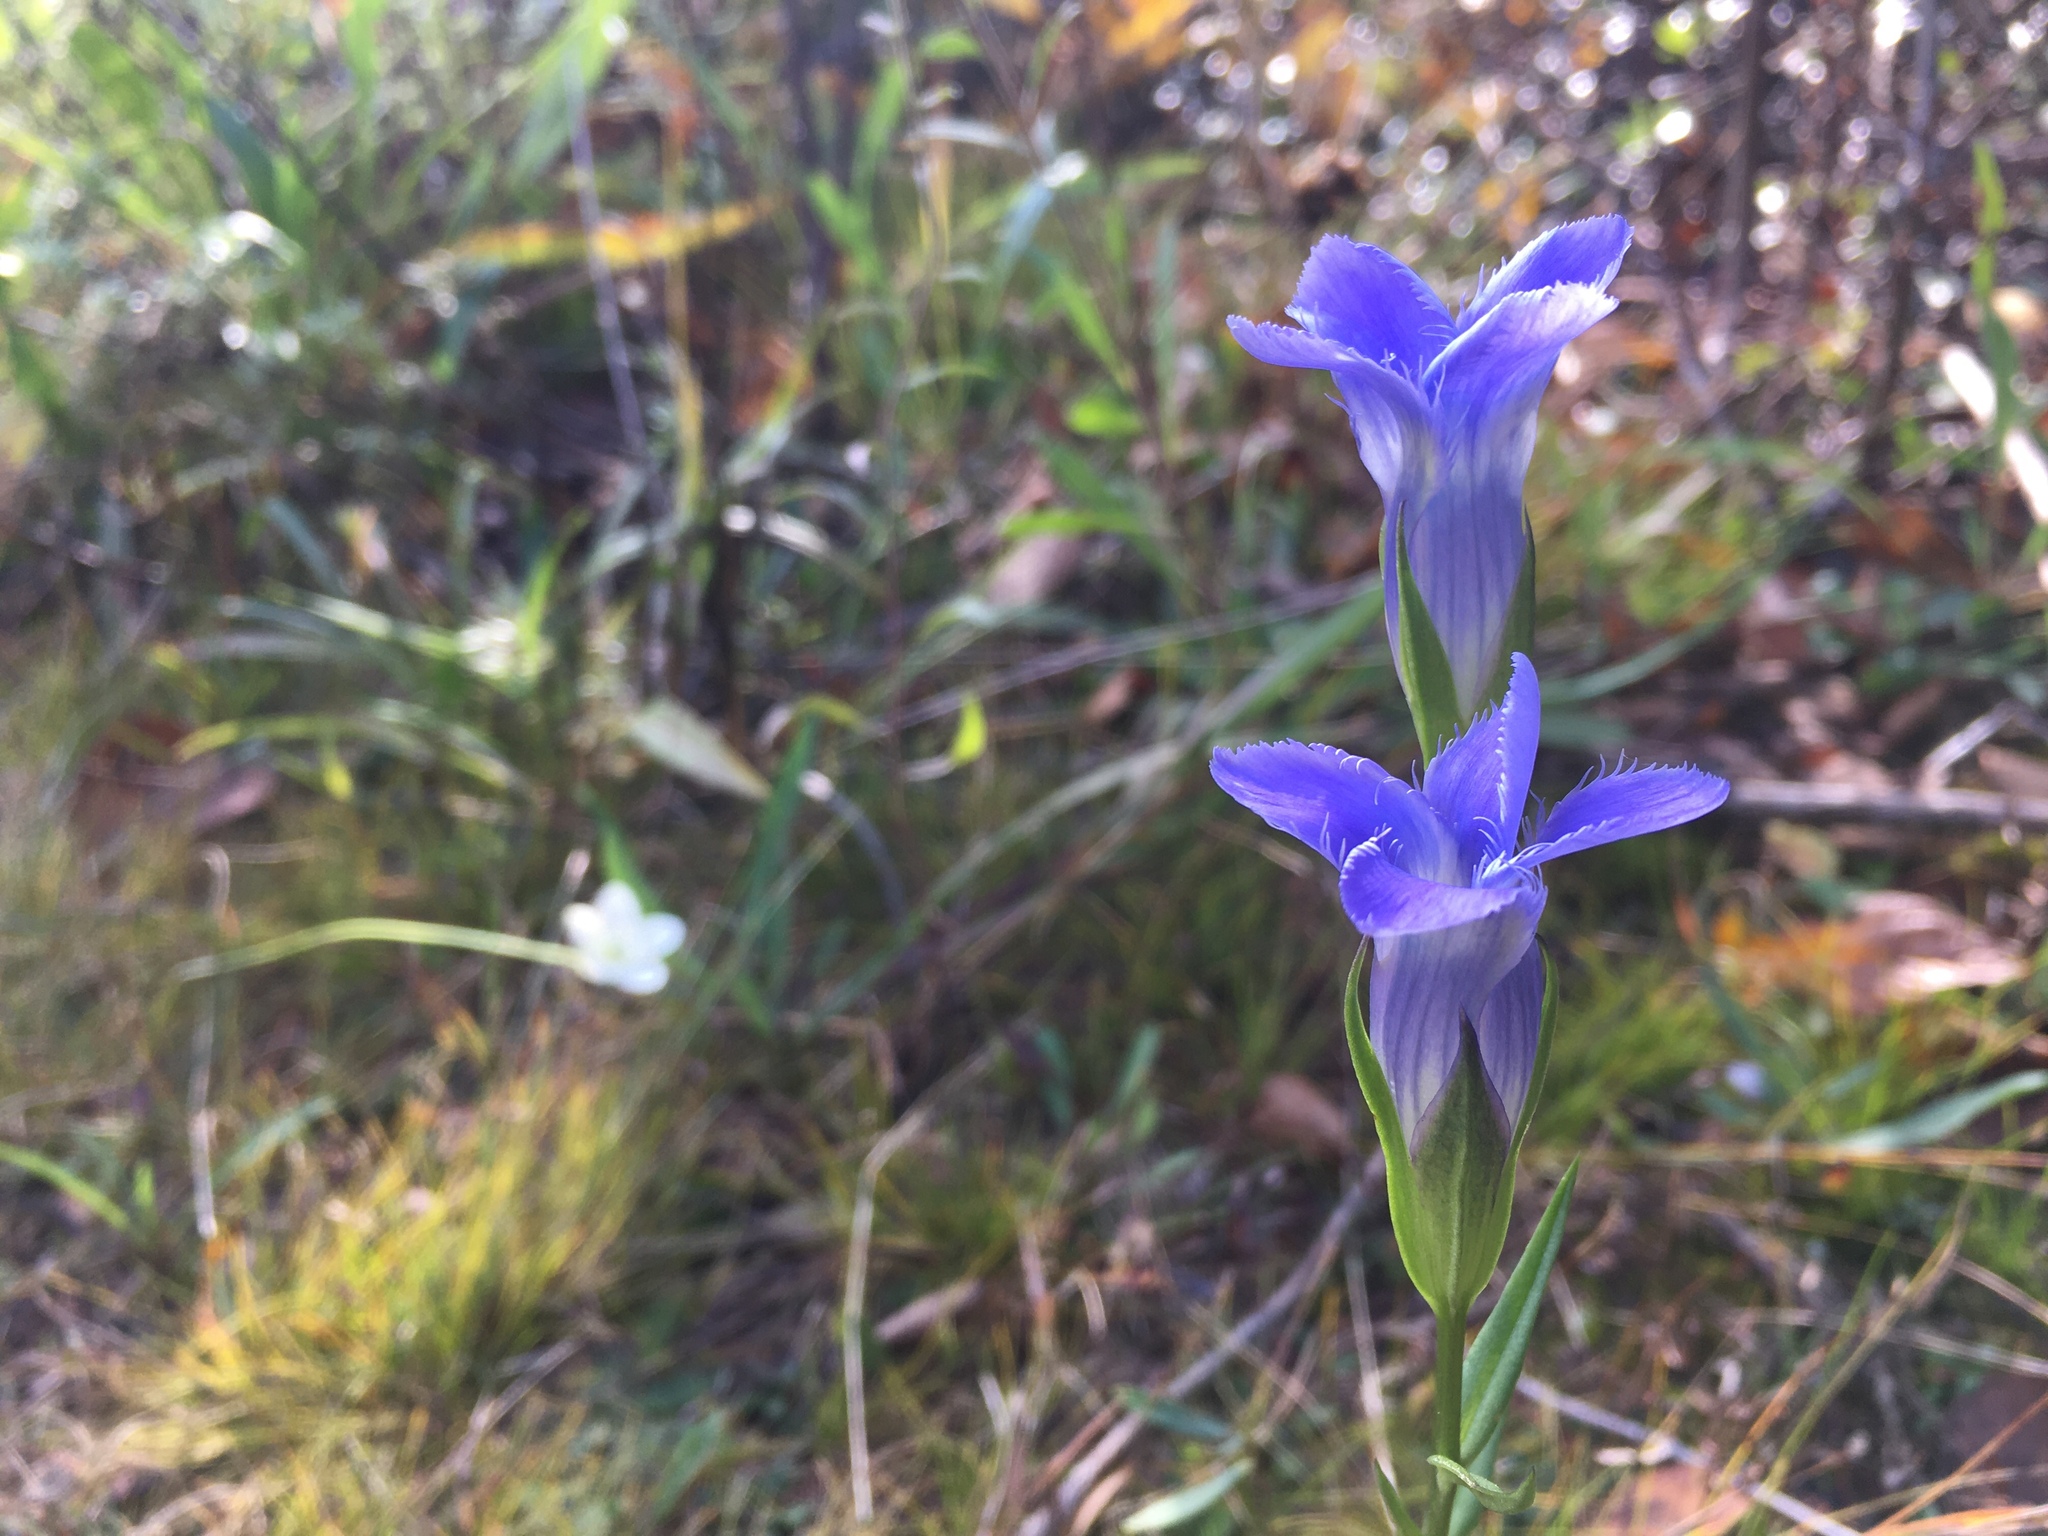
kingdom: Plantae
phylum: Tracheophyta
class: Magnoliopsida
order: Gentianales
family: Gentianaceae
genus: Gentianopsis
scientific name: Gentianopsis virgata
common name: Lesser fringed-gentian
